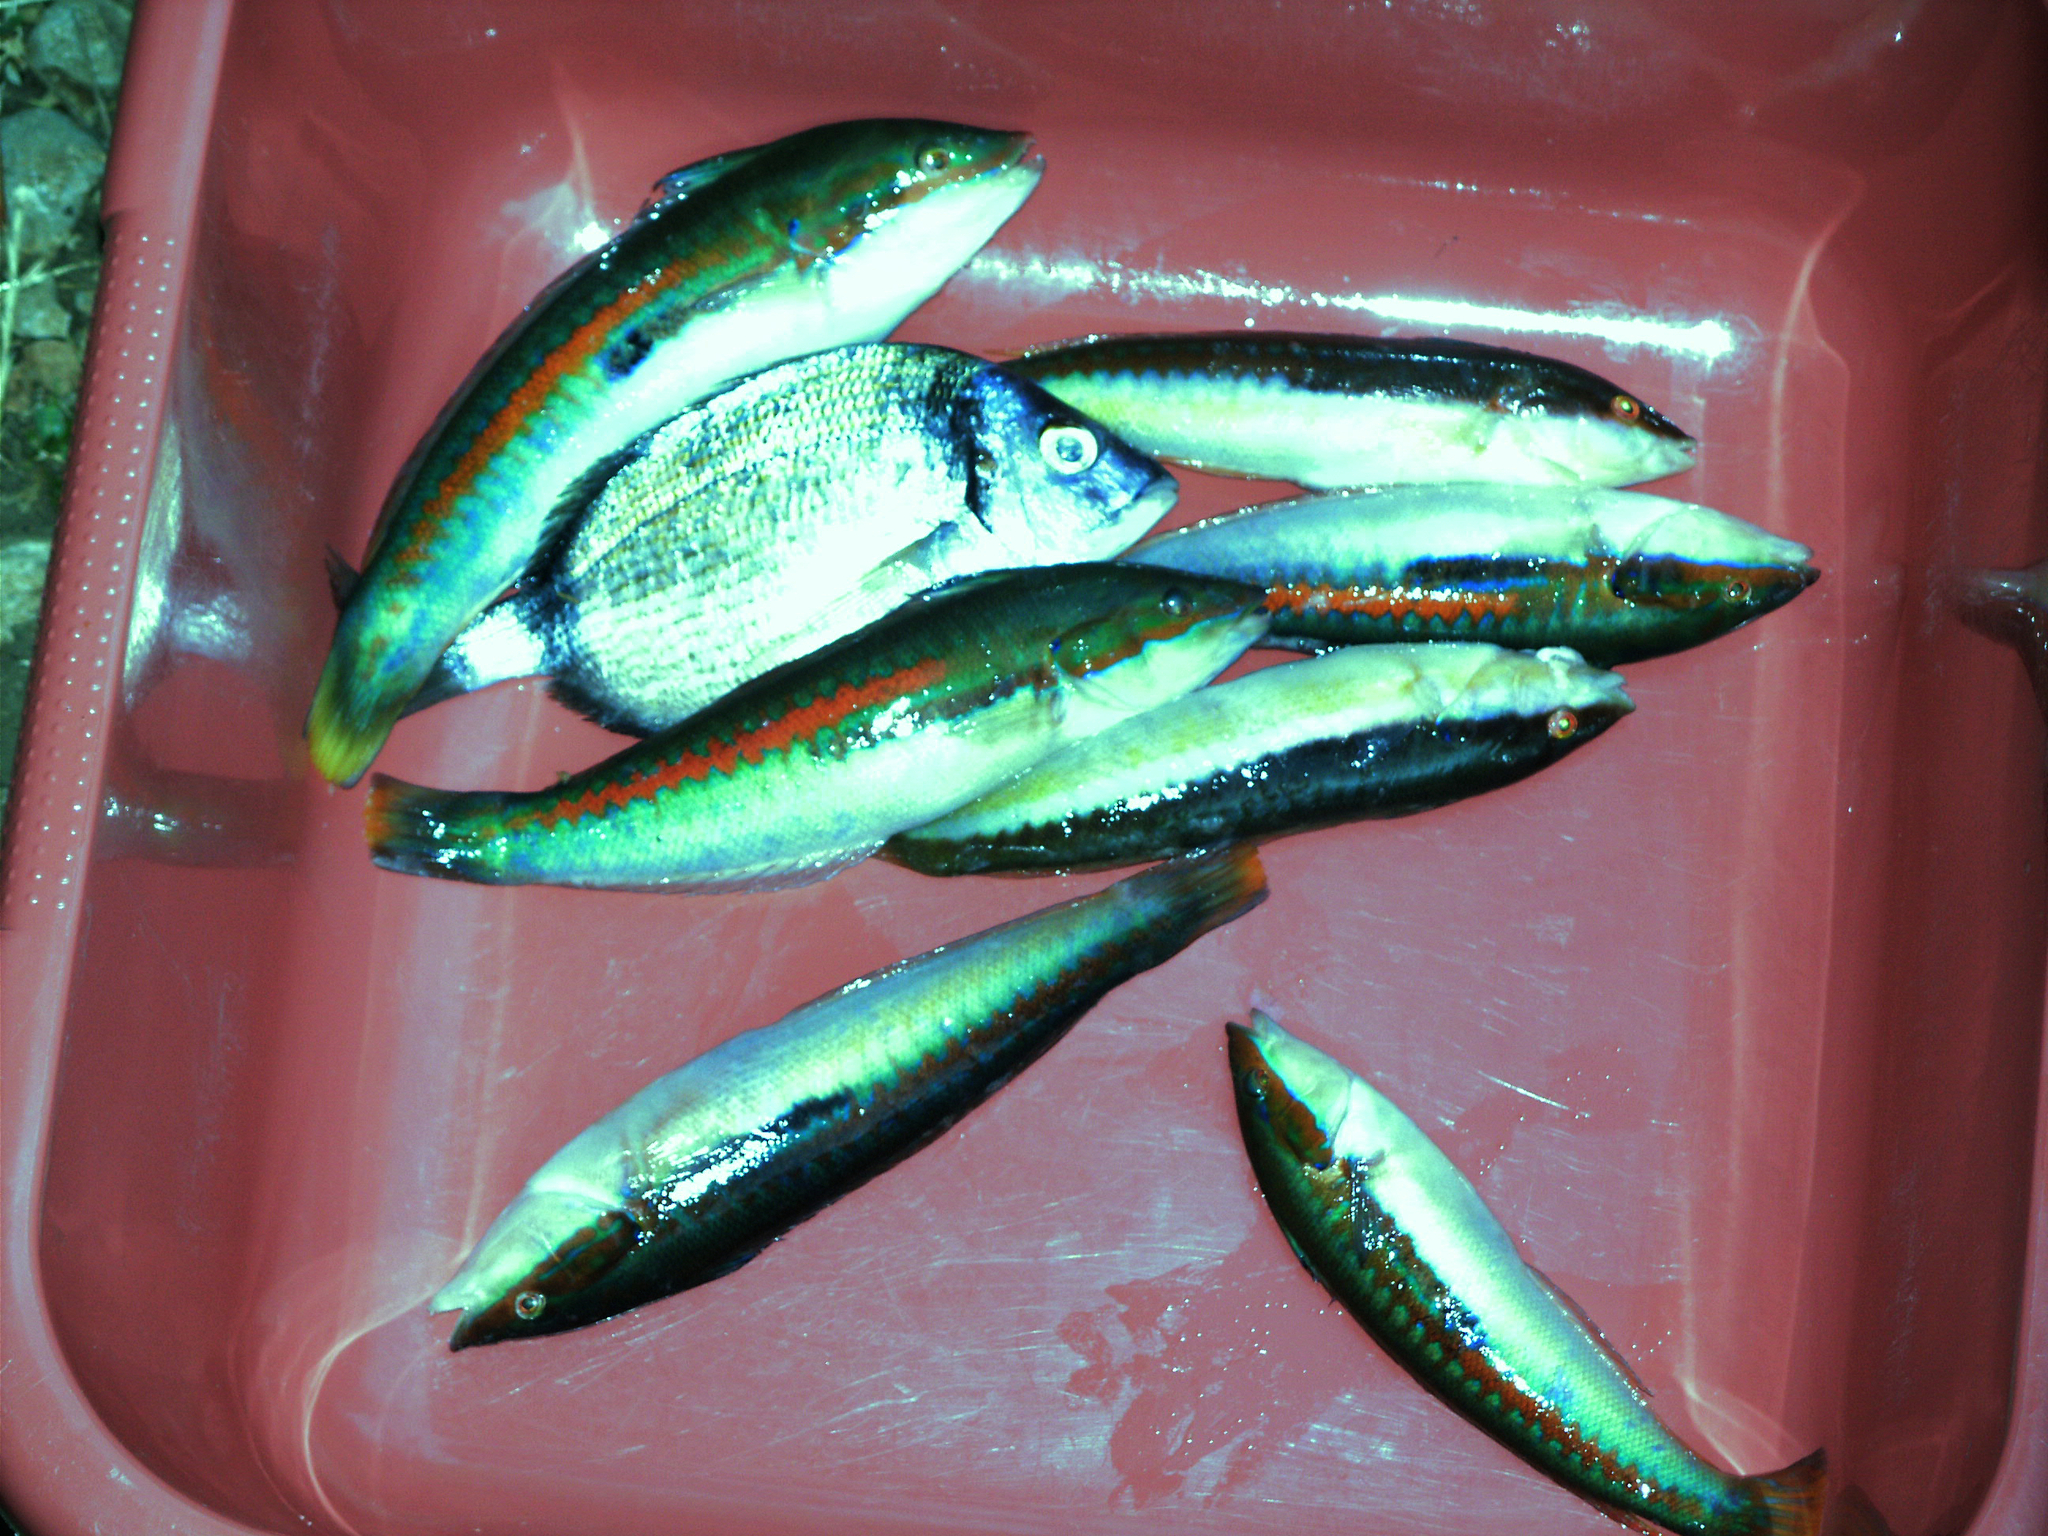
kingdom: Animalia
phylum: Chordata
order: Perciformes
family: Labridae
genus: Coris
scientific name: Coris julis
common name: Rainbow wrasse
